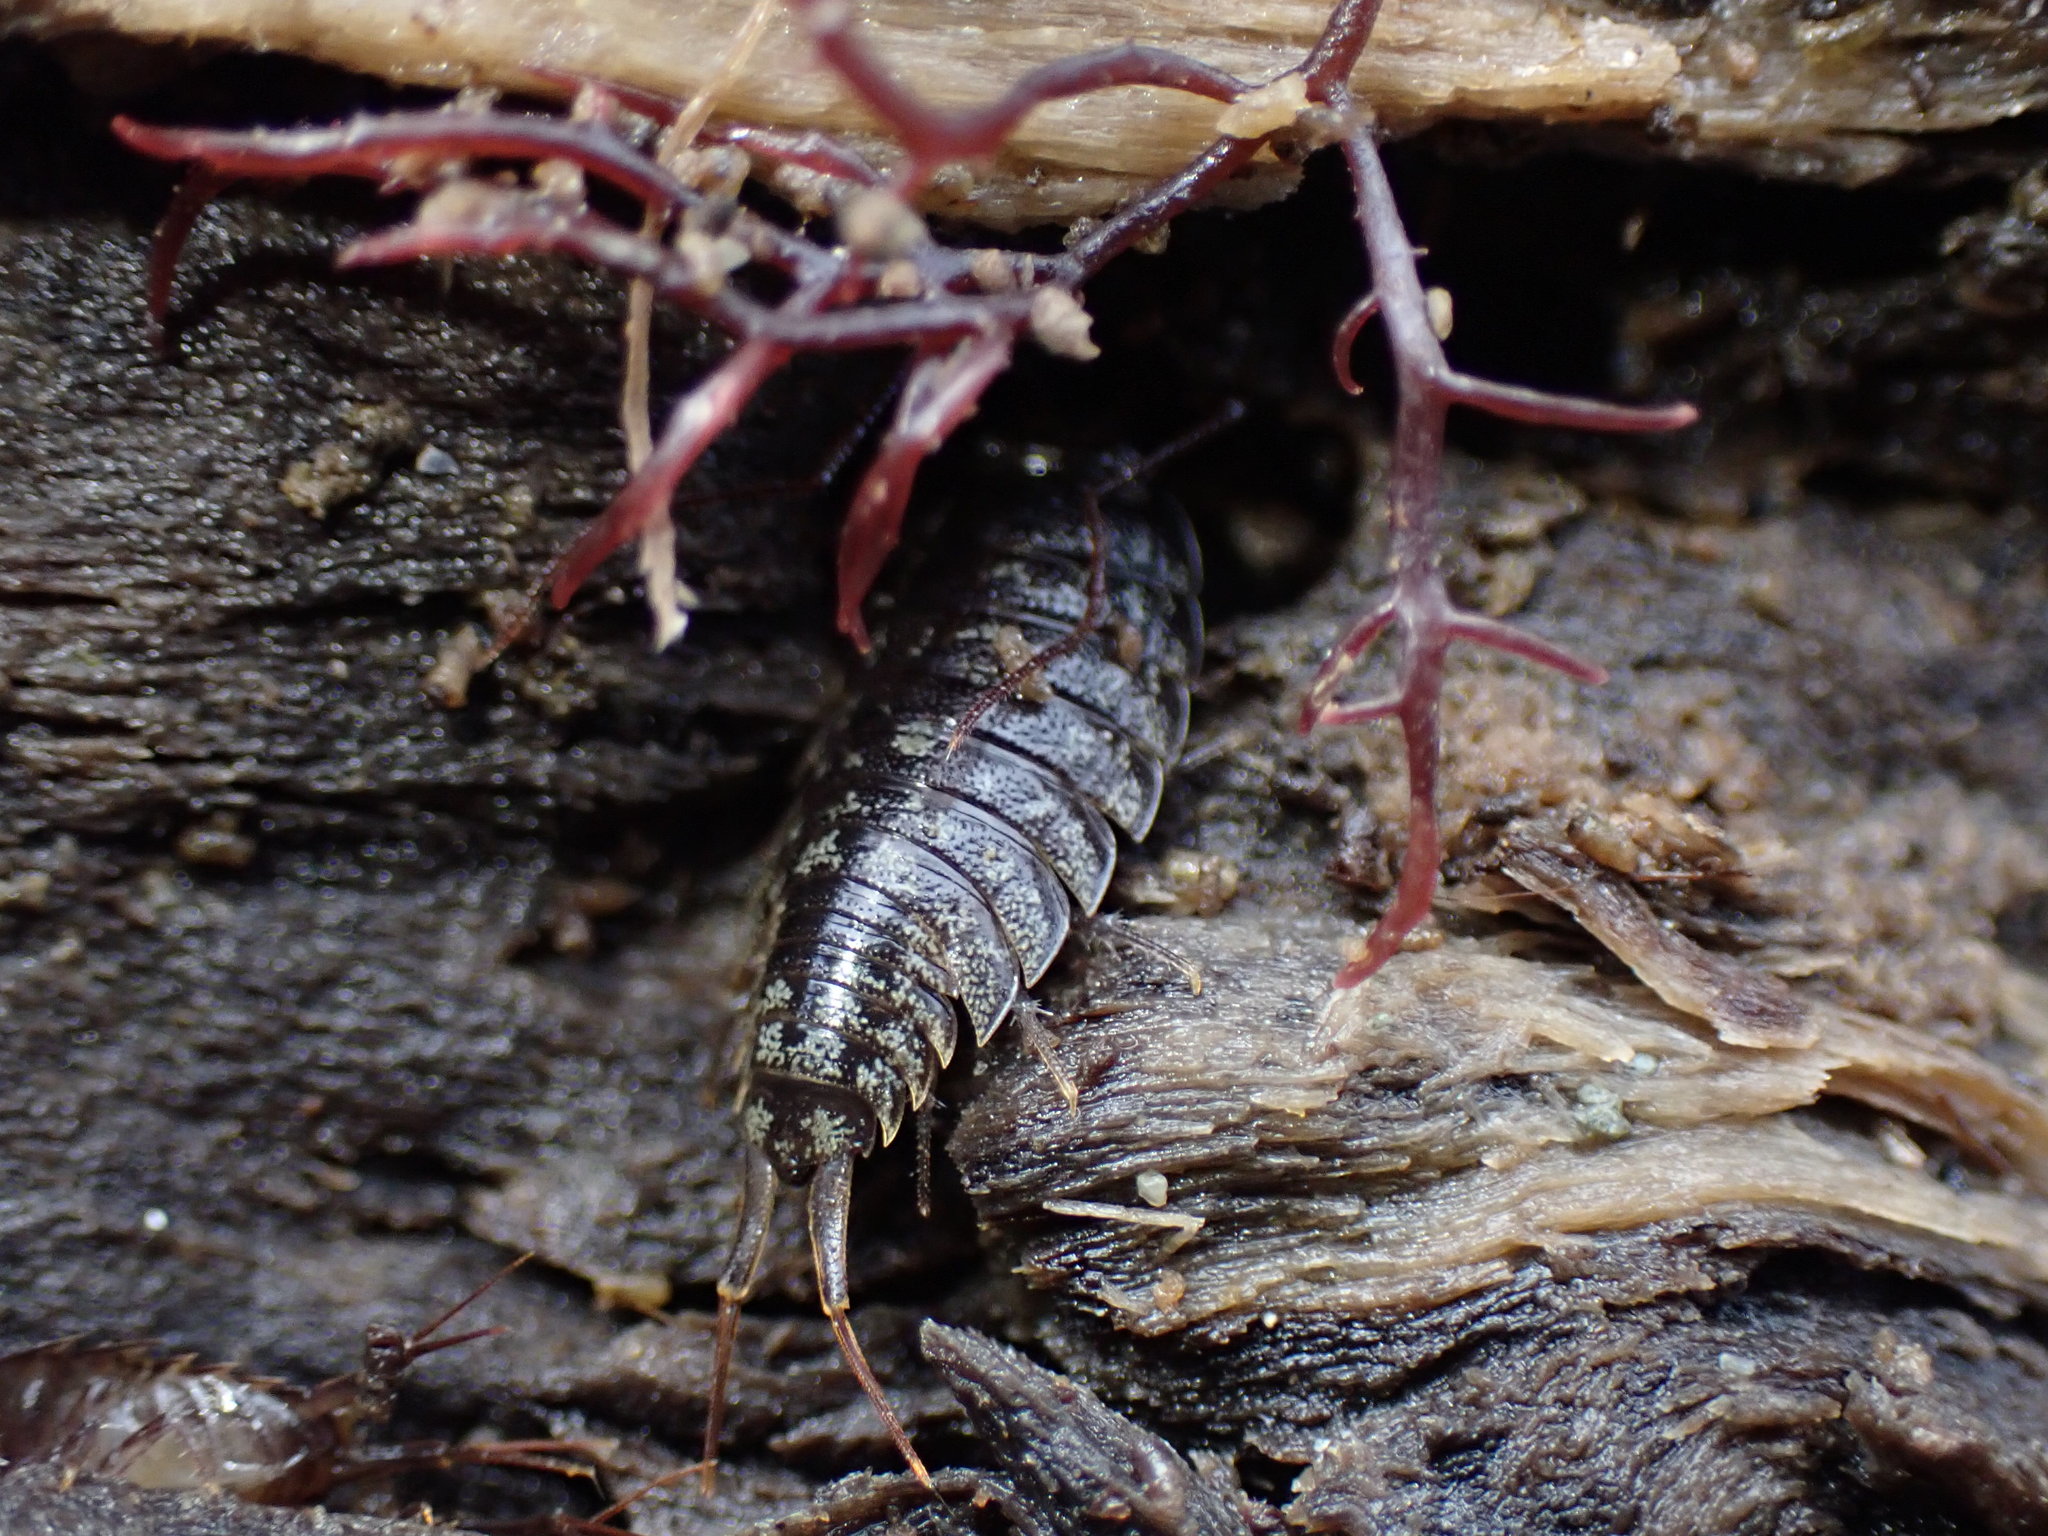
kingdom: Animalia
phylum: Arthropoda
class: Malacostraca
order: Isopoda
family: Ligiidae
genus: Ligia
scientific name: Ligia novizealandiae
